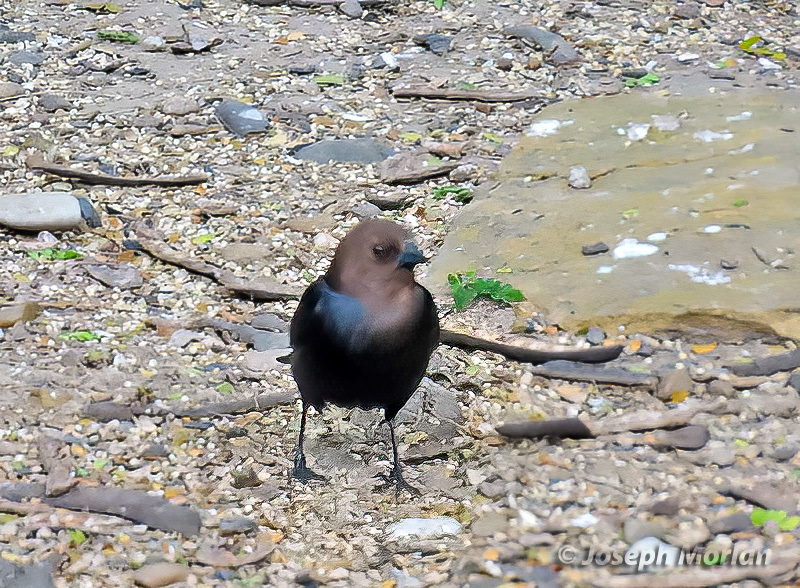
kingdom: Animalia
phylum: Chordata
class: Aves
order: Passeriformes
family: Icteridae
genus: Molothrus
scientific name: Molothrus ater
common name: Brown-headed cowbird
